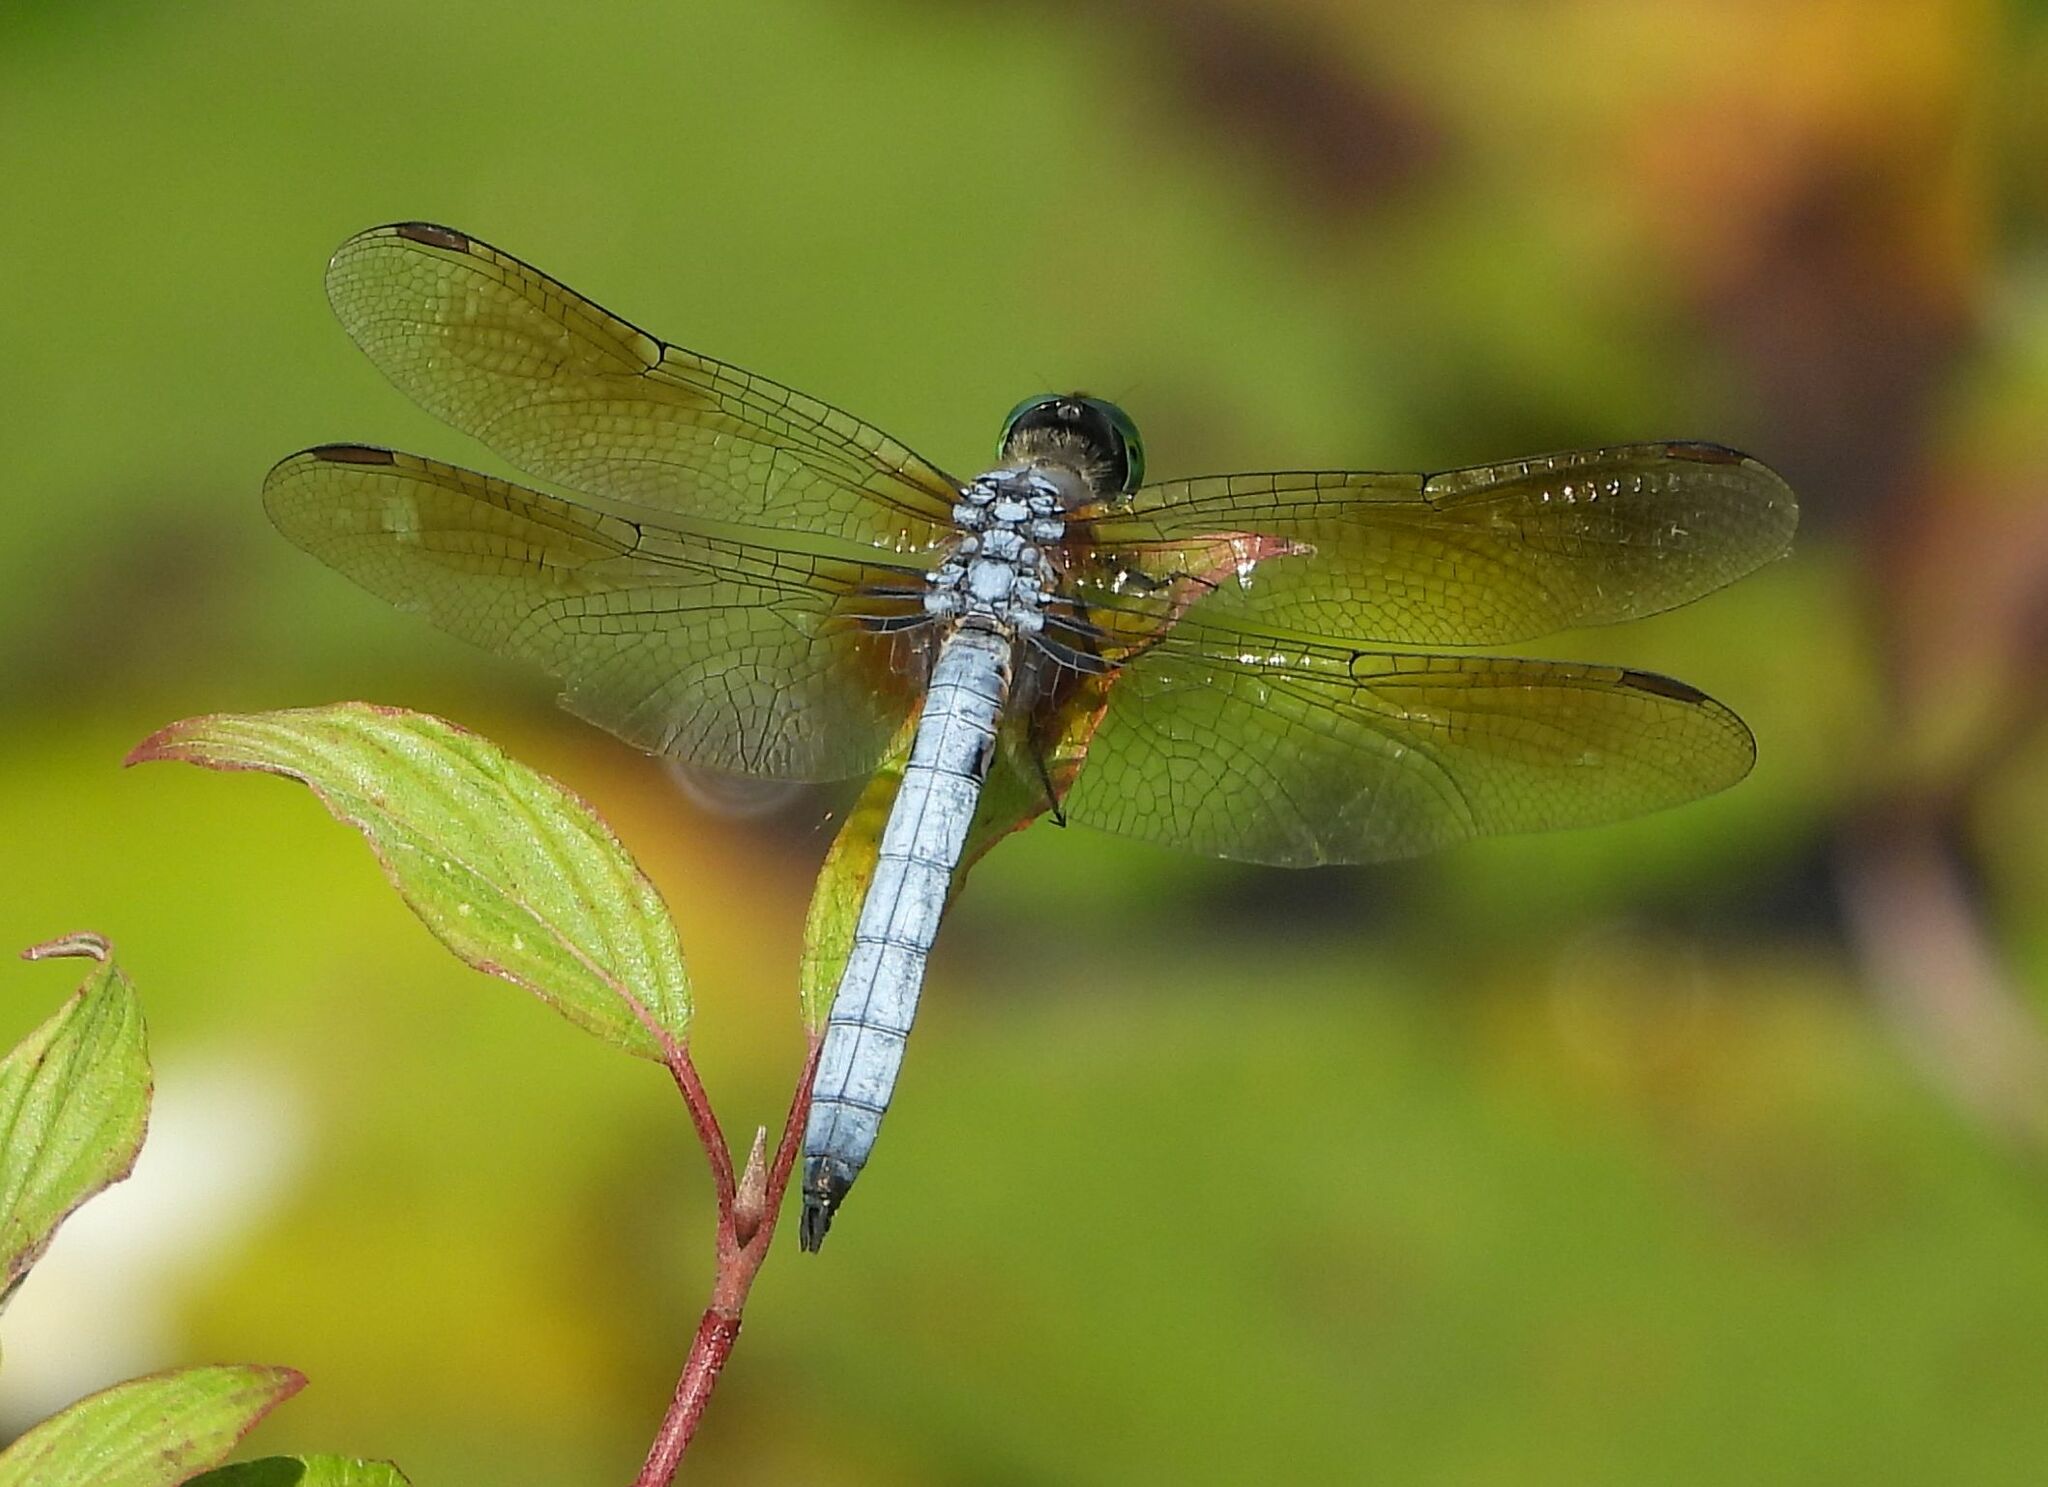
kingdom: Animalia
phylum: Arthropoda
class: Insecta
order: Odonata
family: Libellulidae
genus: Pachydiplax
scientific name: Pachydiplax longipennis
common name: Blue dasher
